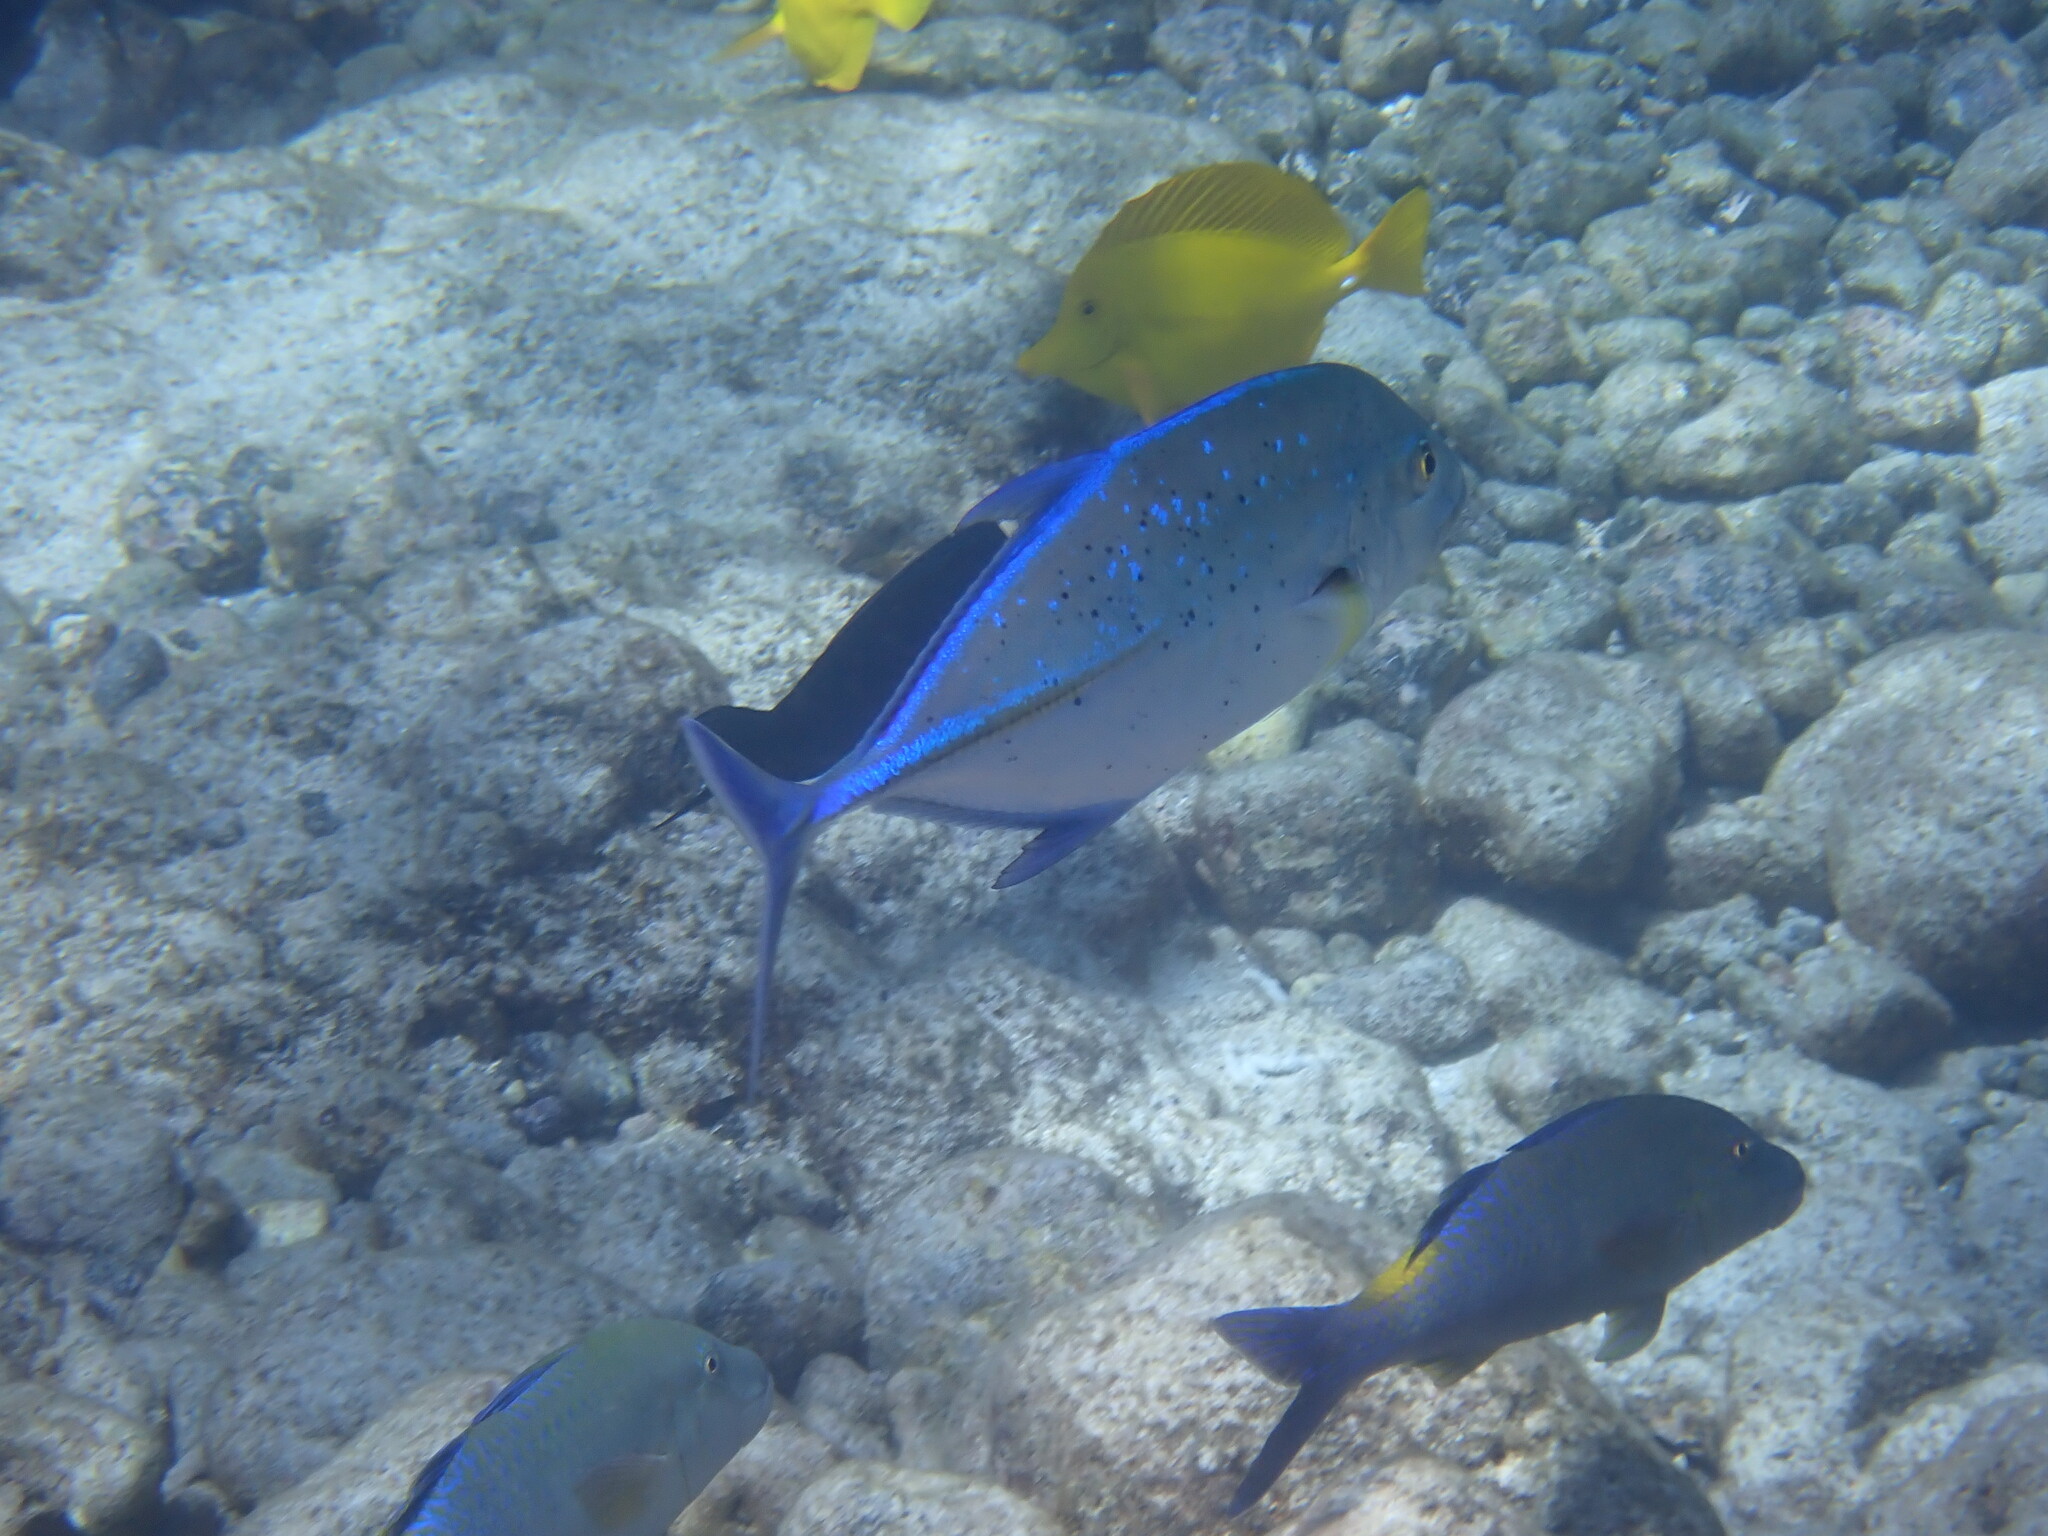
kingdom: Animalia
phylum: Chordata
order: Perciformes
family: Carangidae
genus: Caranx
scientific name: Caranx melampygus
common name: Bluefin trevally
